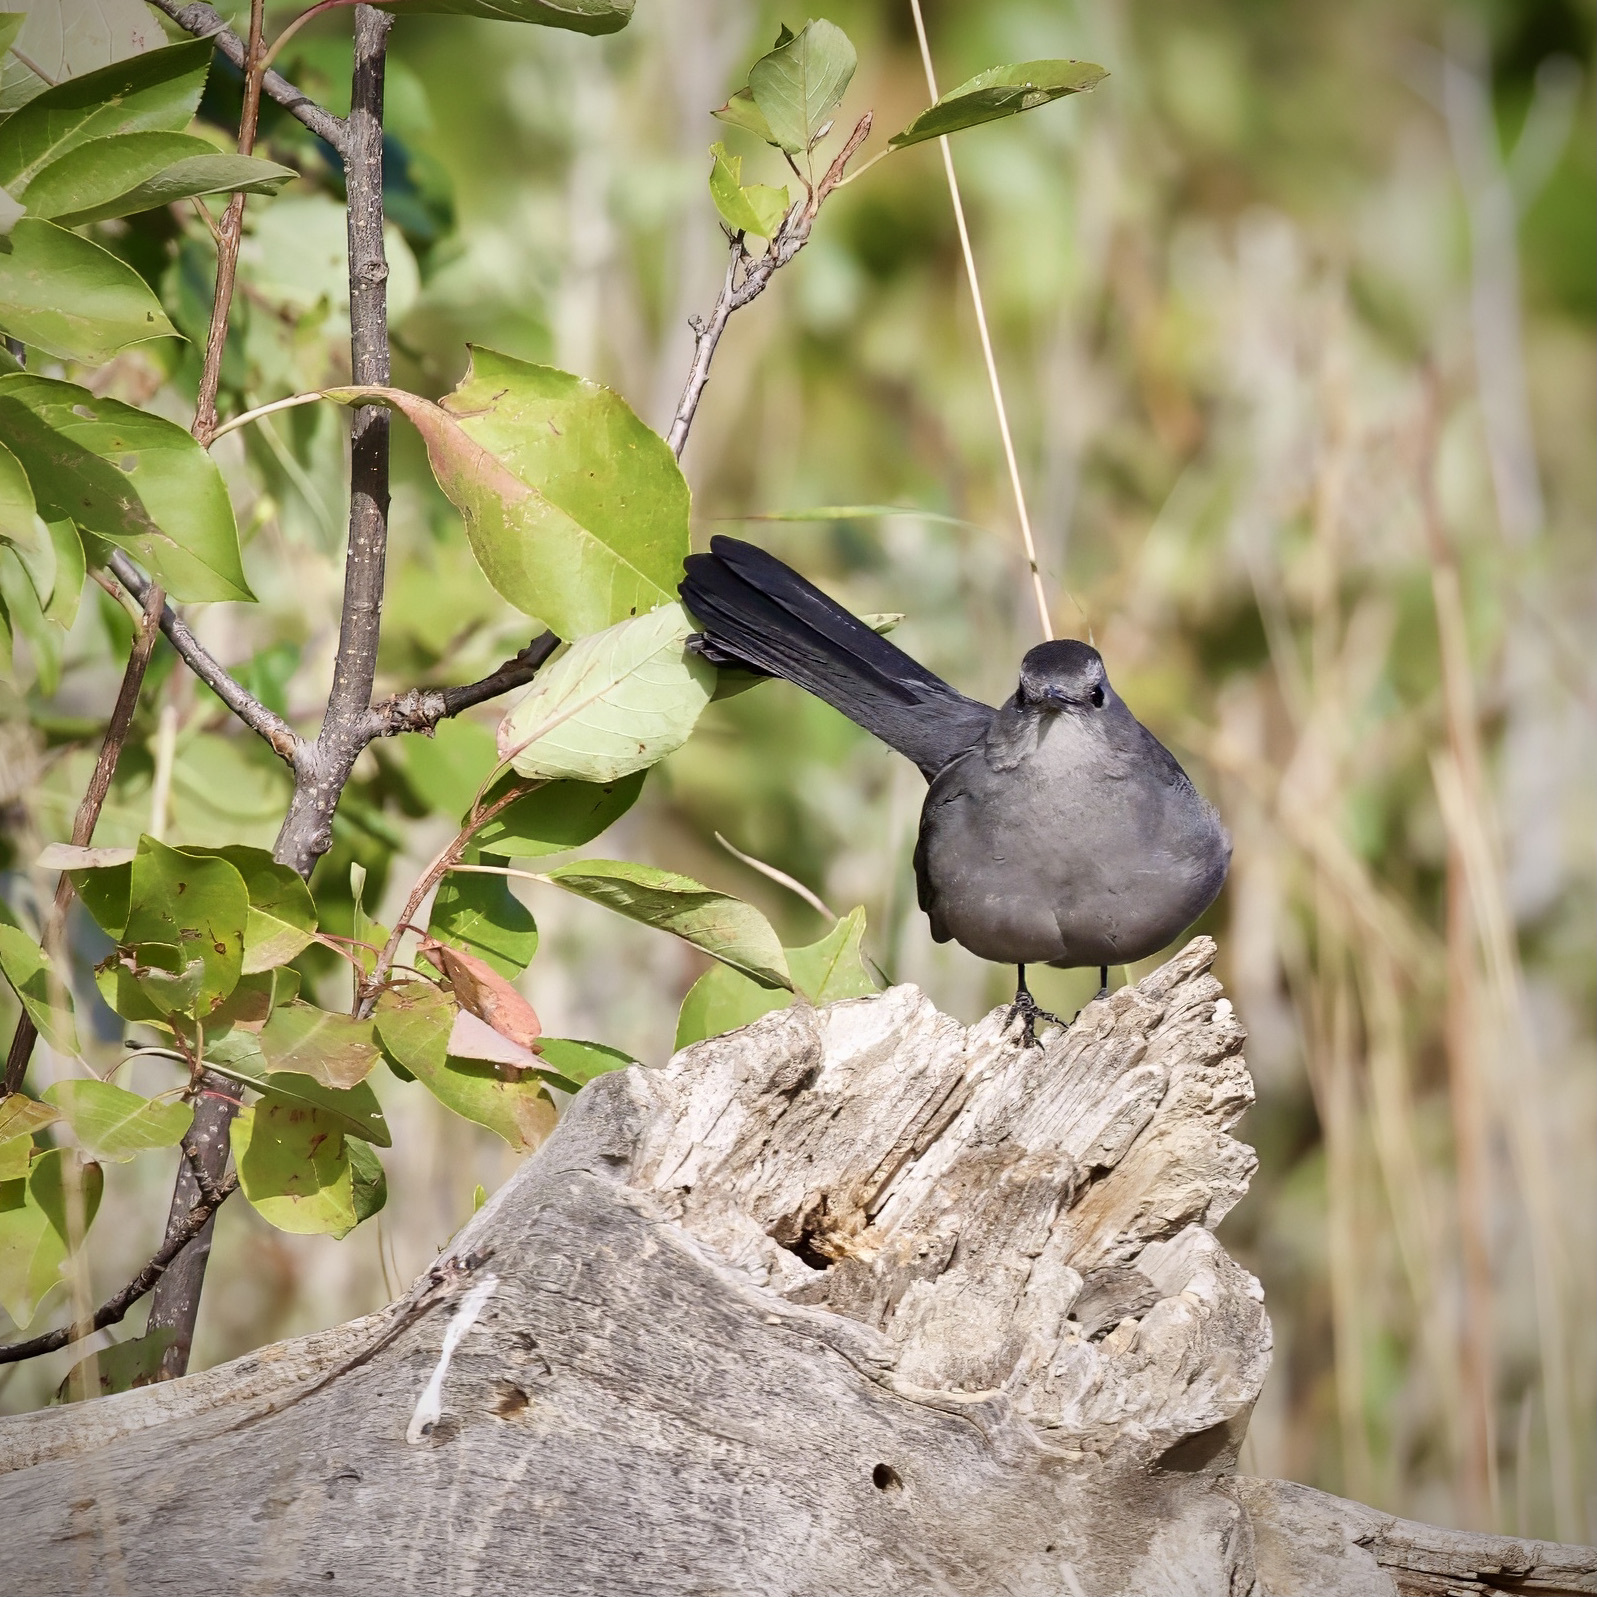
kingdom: Animalia
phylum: Chordata
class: Aves
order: Passeriformes
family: Mimidae
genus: Dumetella
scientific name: Dumetella carolinensis
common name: Gray catbird
